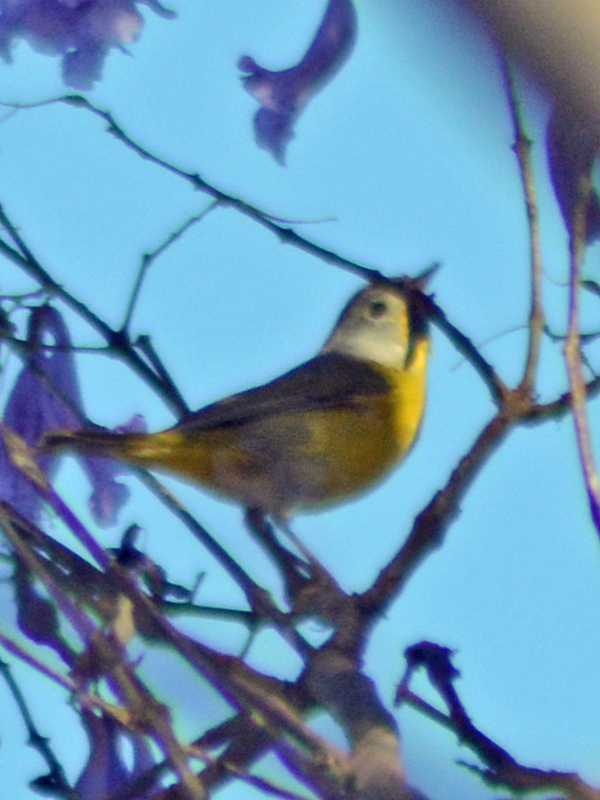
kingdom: Animalia
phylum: Chordata
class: Aves
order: Passeriformes
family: Parulidae
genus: Leiothlypis
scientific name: Leiothlypis ruficapilla
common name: Nashville warbler
